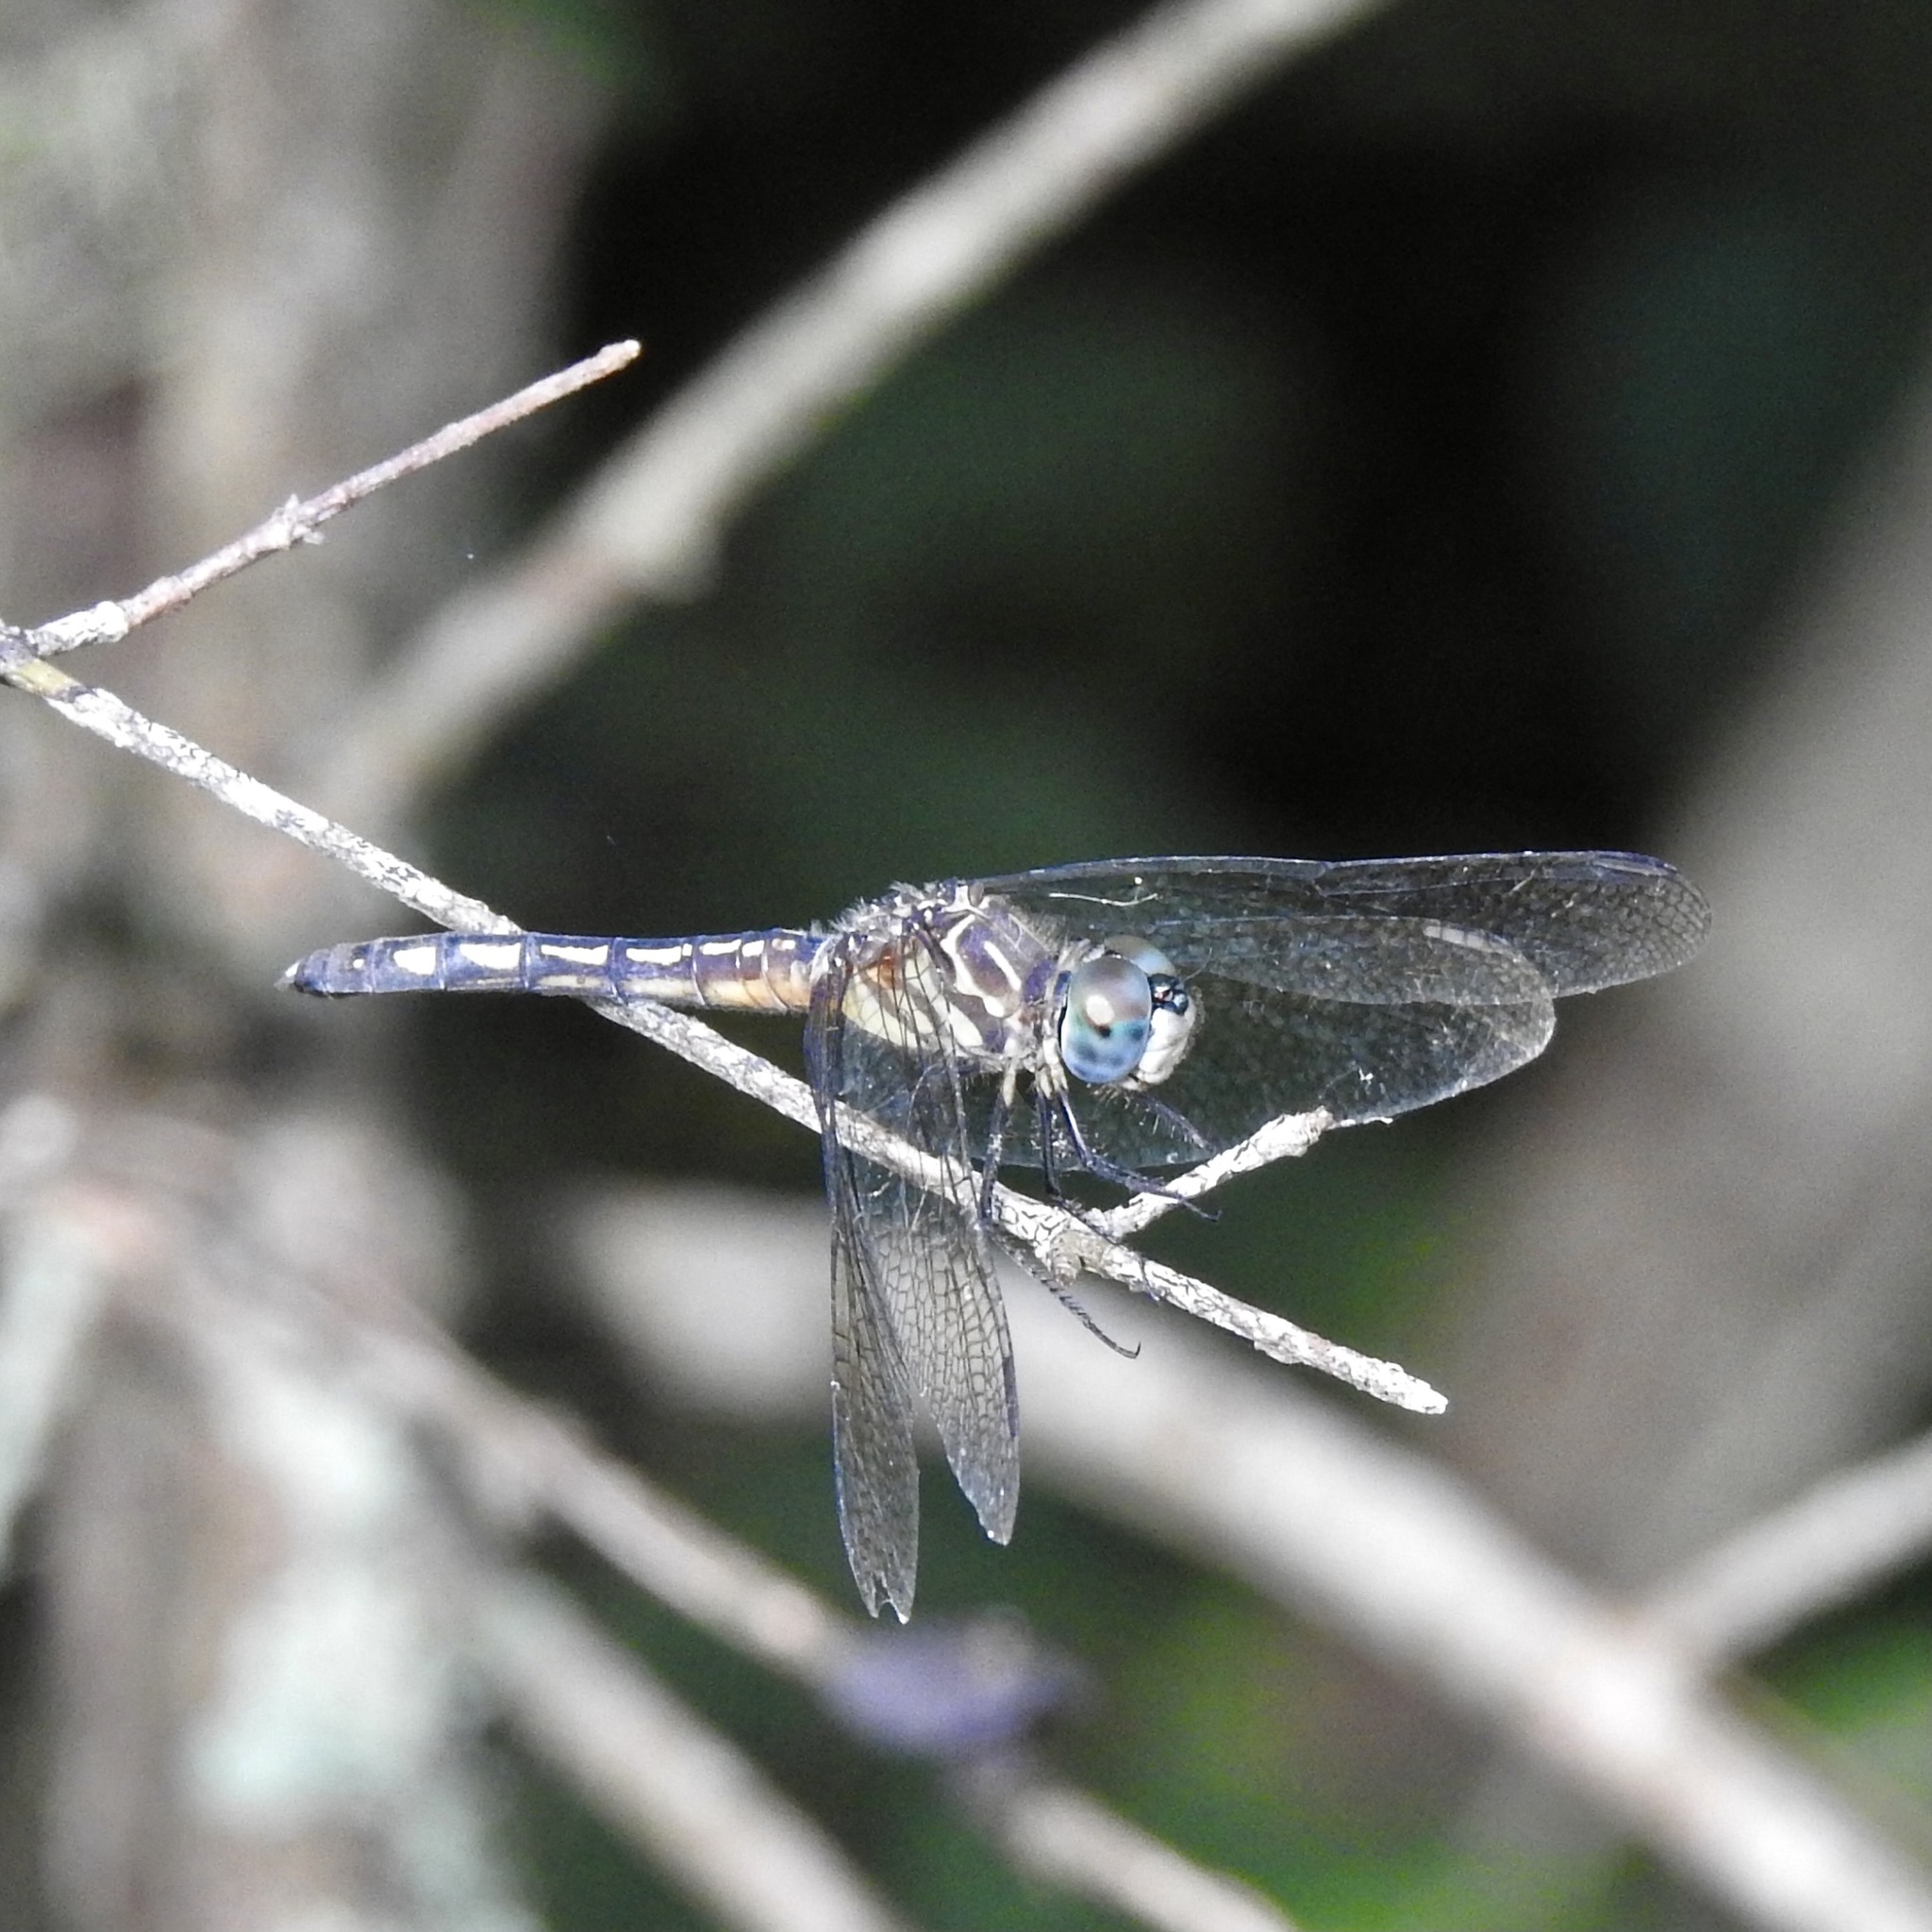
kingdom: Animalia
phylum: Arthropoda
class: Insecta
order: Odonata
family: Libellulidae
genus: Pachydiplax
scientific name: Pachydiplax longipennis
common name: Blue dasher
